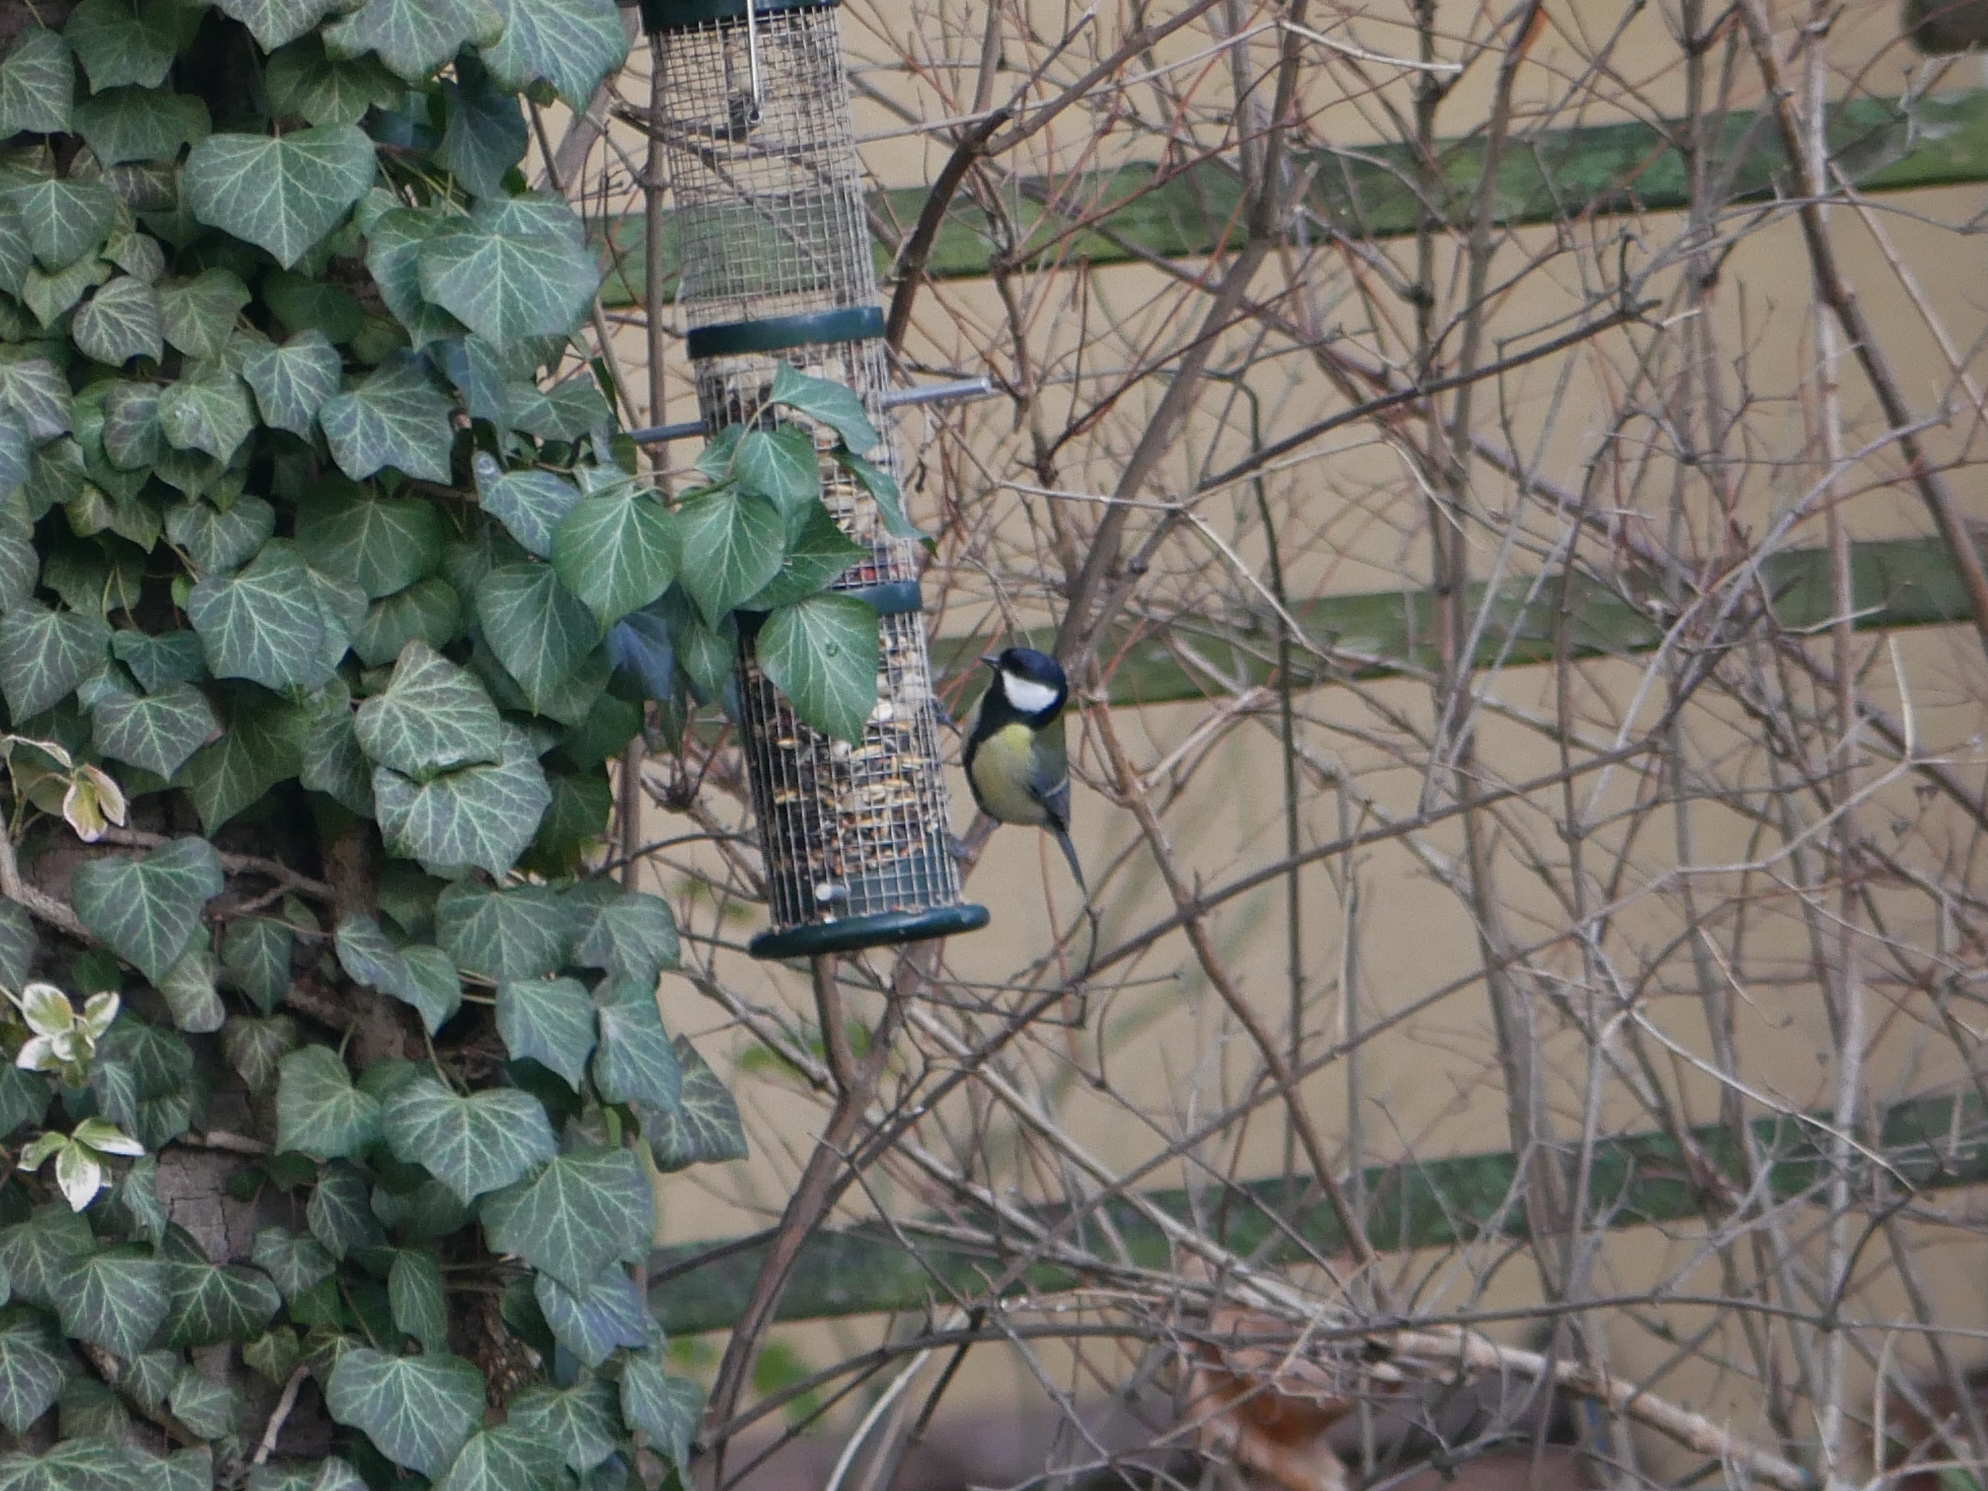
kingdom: Animalia
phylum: Chordata
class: Aves
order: Passeriformes
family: Paridae
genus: Parus
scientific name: Parus major
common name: Great tit
